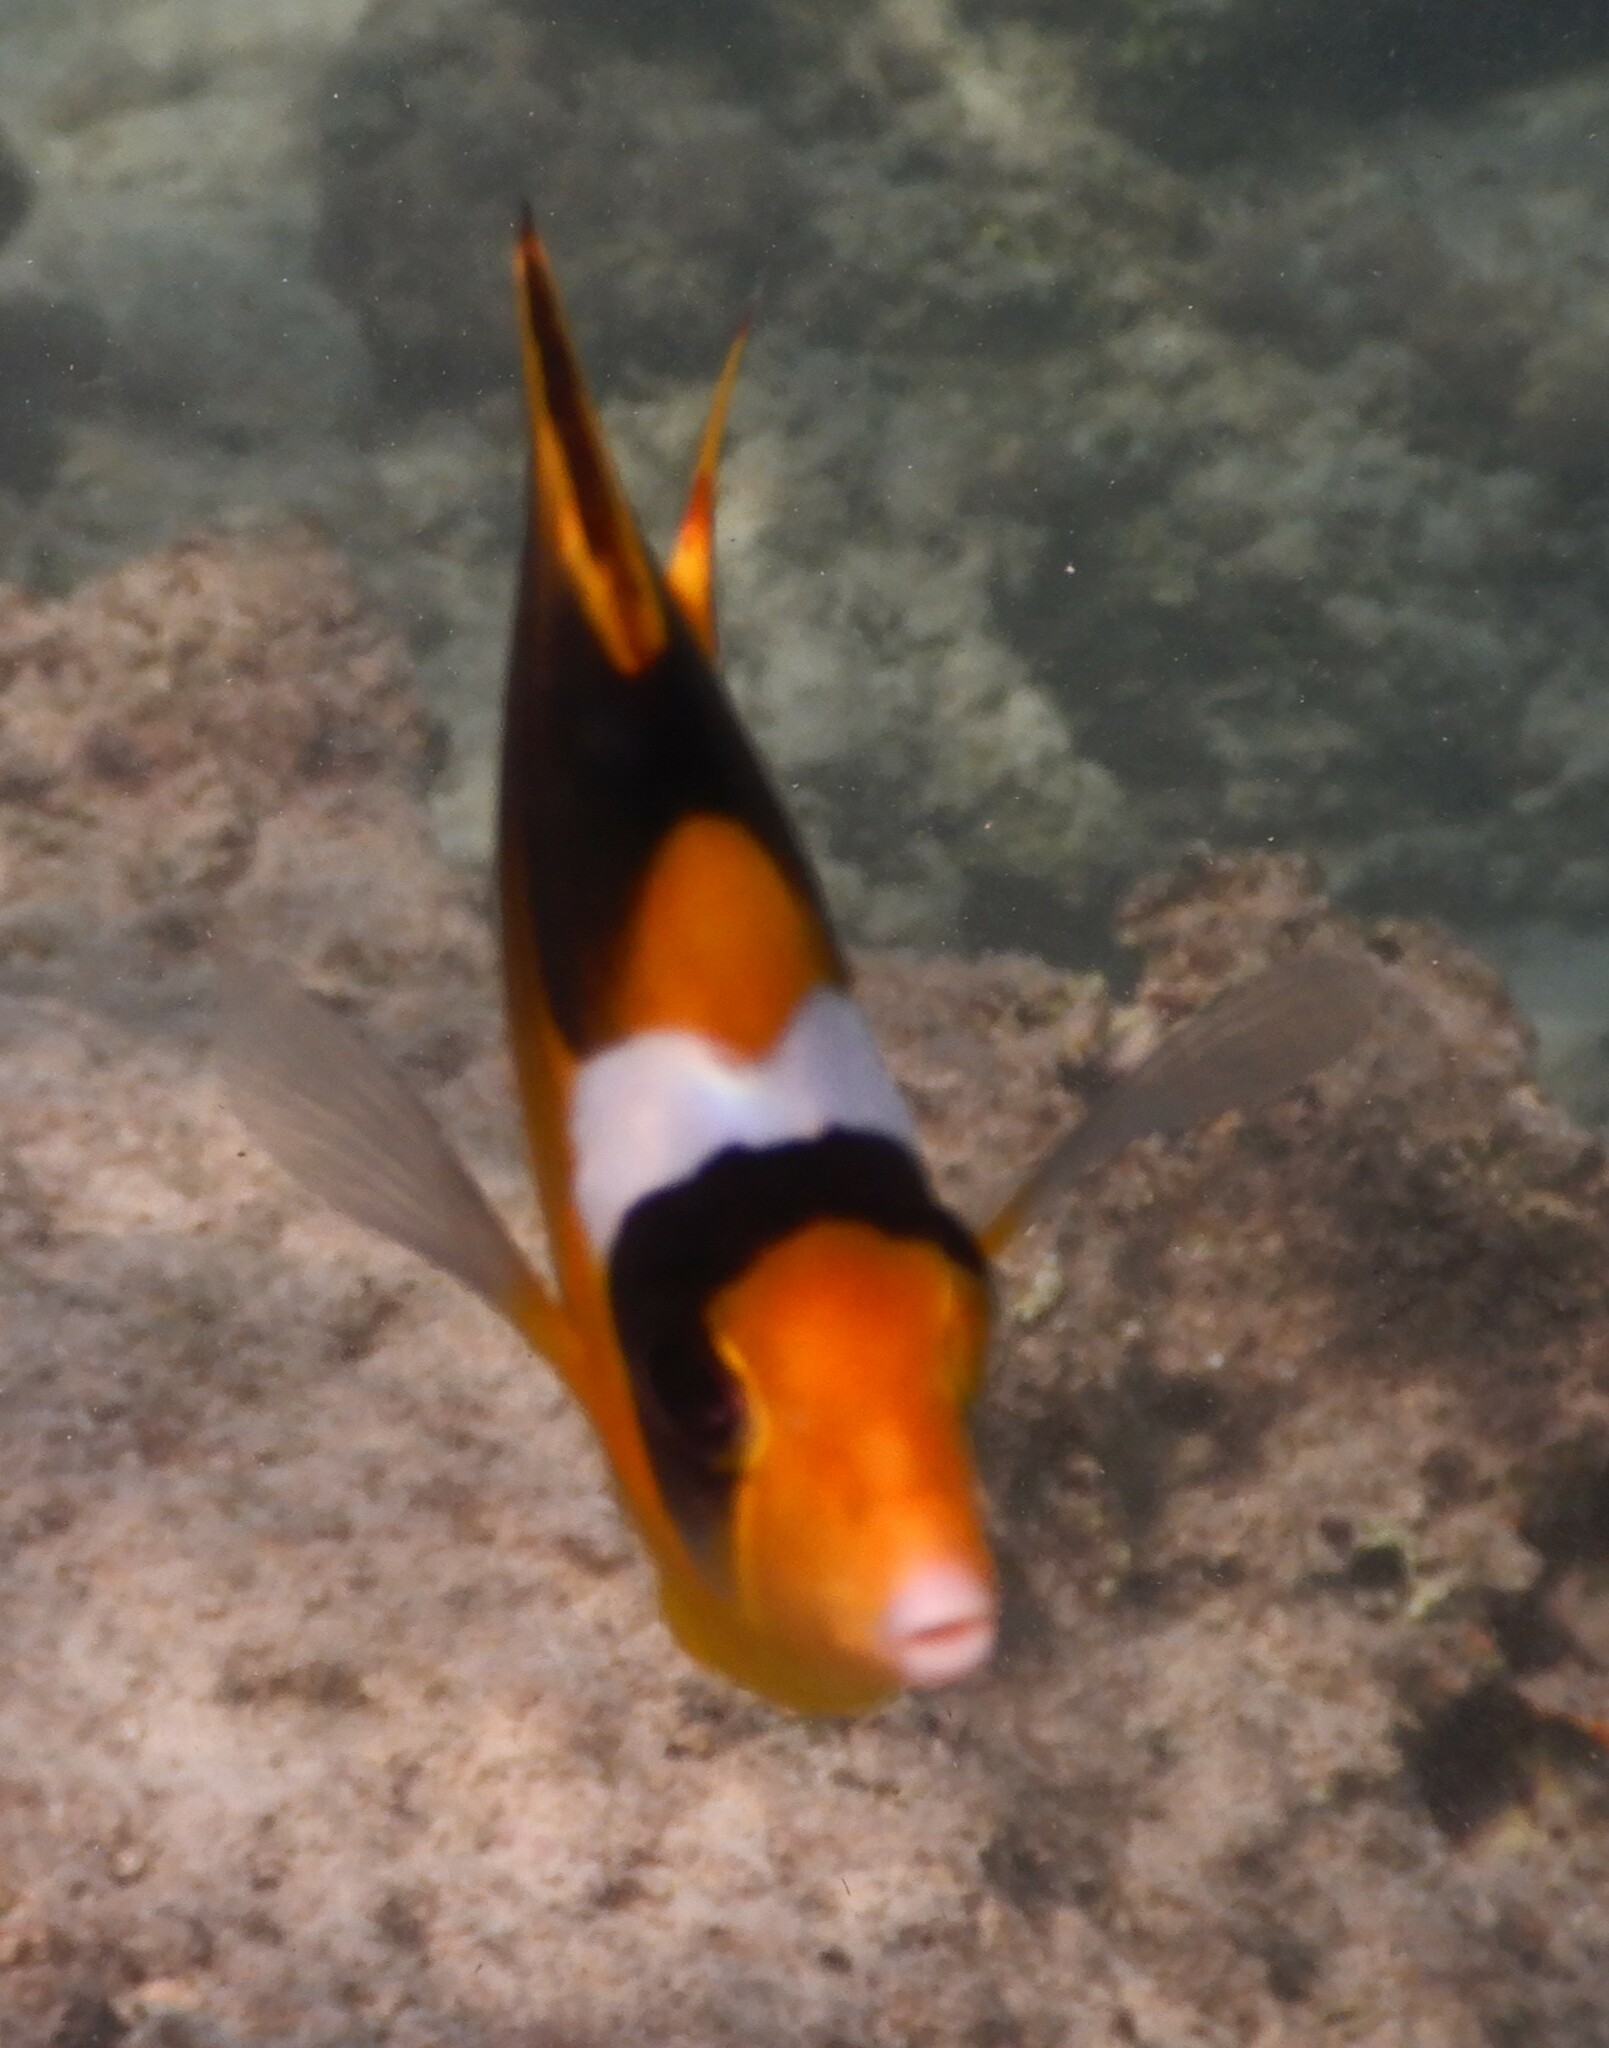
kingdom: Animalia
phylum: Chordata
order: Perciformes
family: Chaetodontidae
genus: Chaetodon
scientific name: Chaetodon fasciatus
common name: Diagonal butterflyfish
